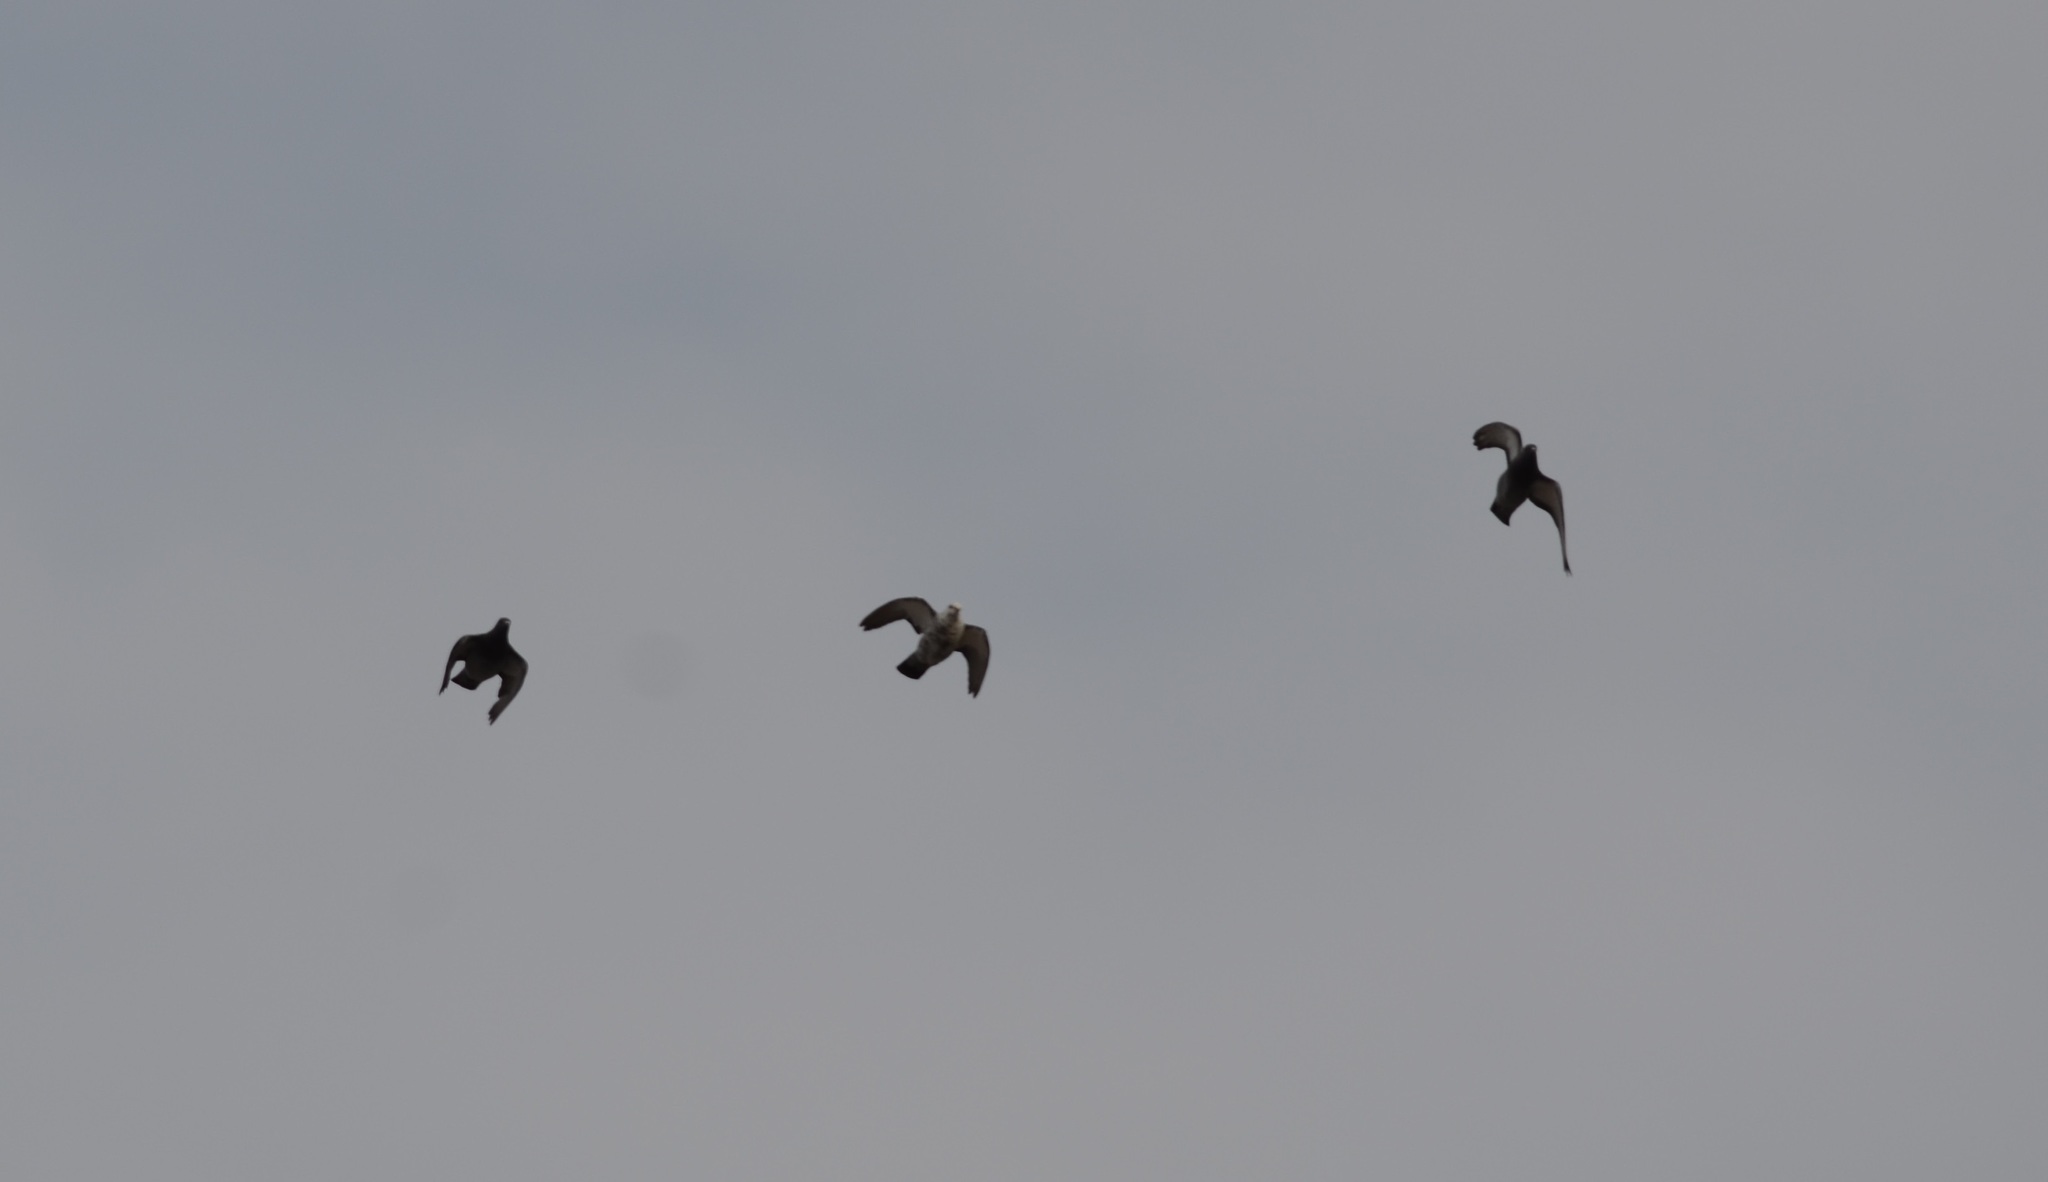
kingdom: Animalia
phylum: Chordata
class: Aves
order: Columbiformes
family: Columbidae
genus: Columba
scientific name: Columba livia
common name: Rock pigeon
